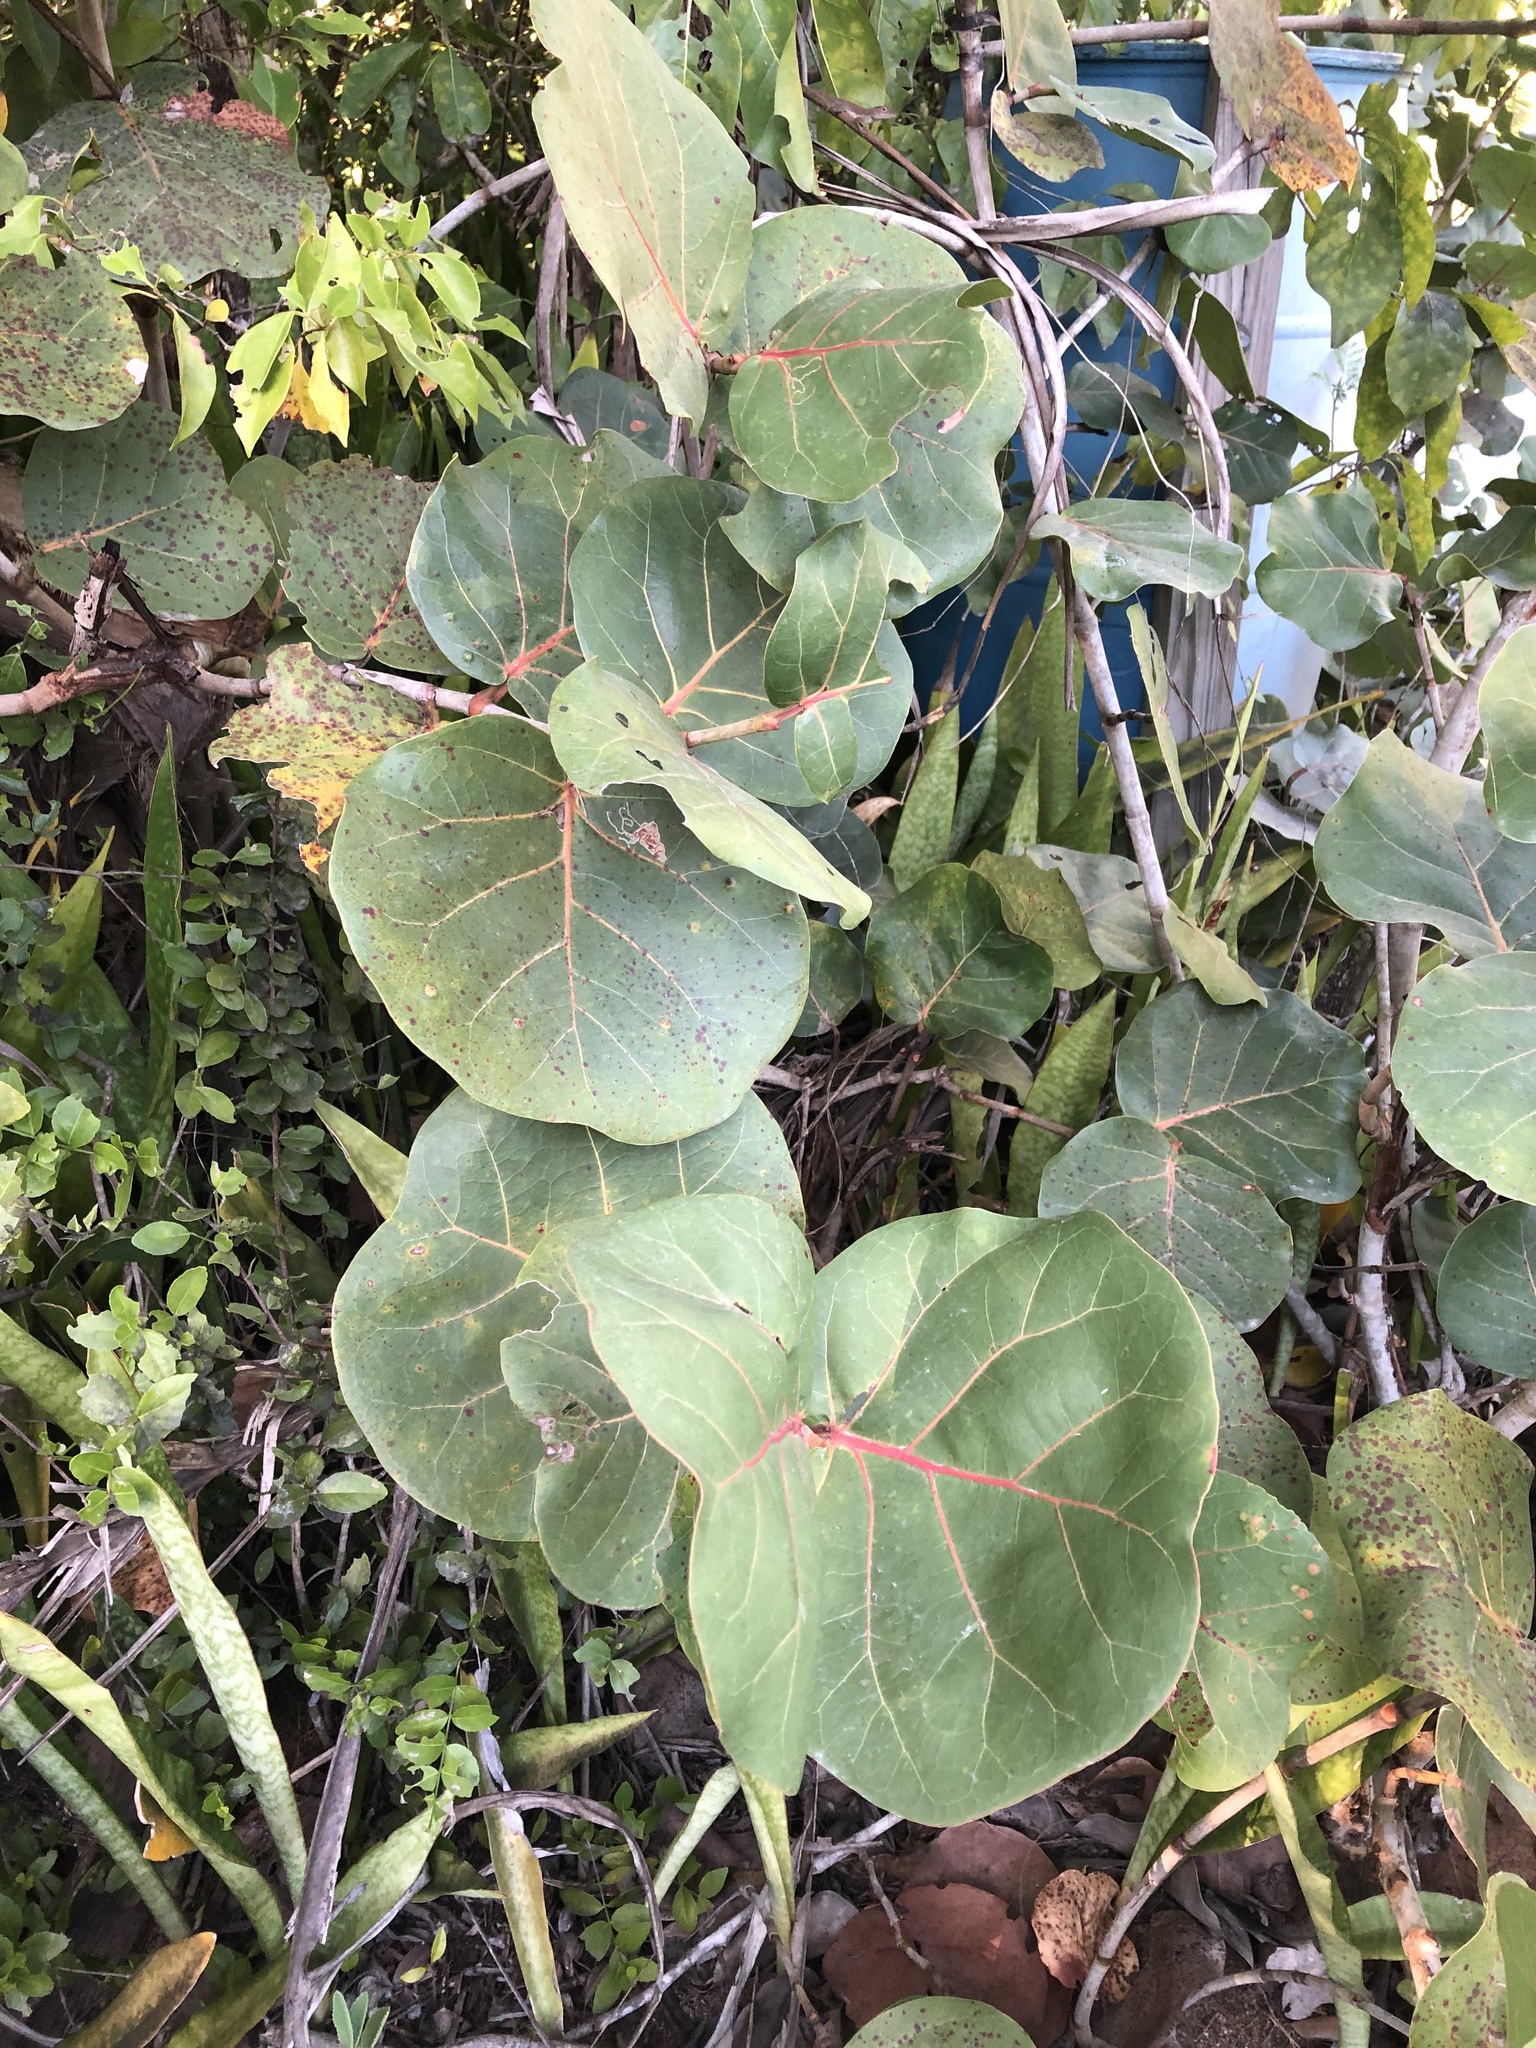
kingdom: Plantae
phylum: Tracheophyta
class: Magnoliopsida
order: Caryophyllales
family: Polygonaceae
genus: Coccoloba
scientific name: Coccoloba uvifera
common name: Seagrape
